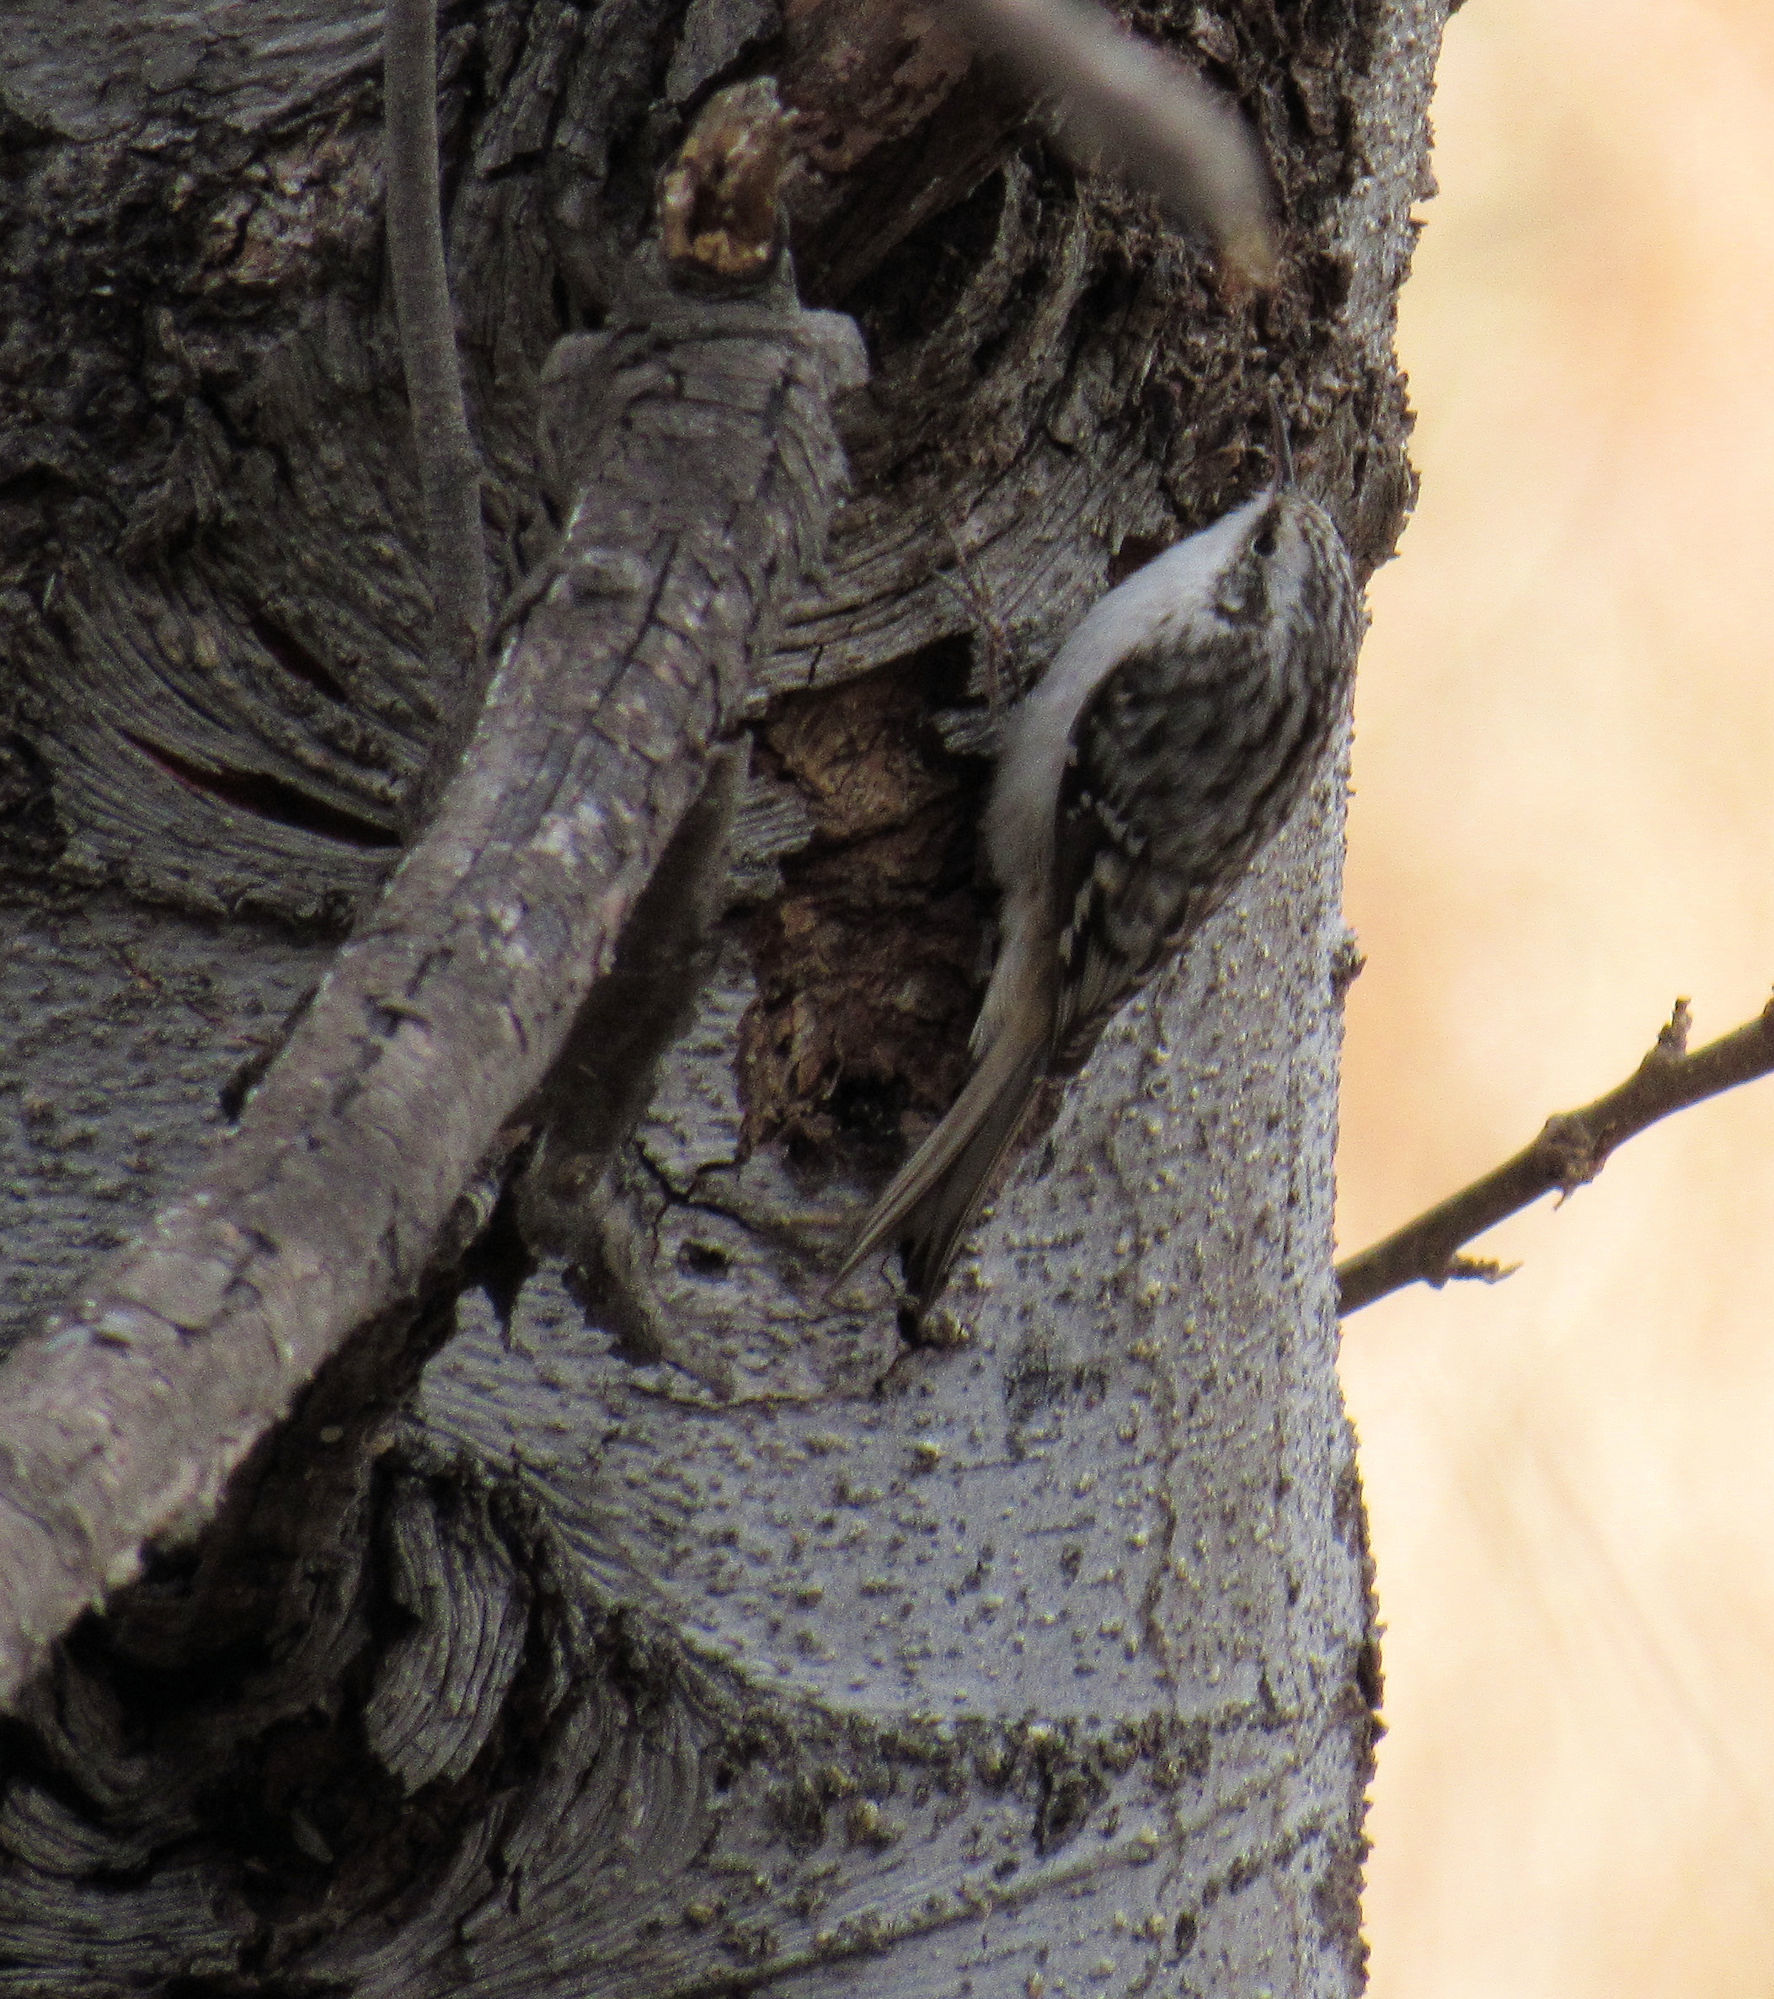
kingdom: Animalia
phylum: Chordata
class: Aves
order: Passeriformes
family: Certhiidae
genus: Certhia
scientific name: Certhia americana
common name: Brown creeper
